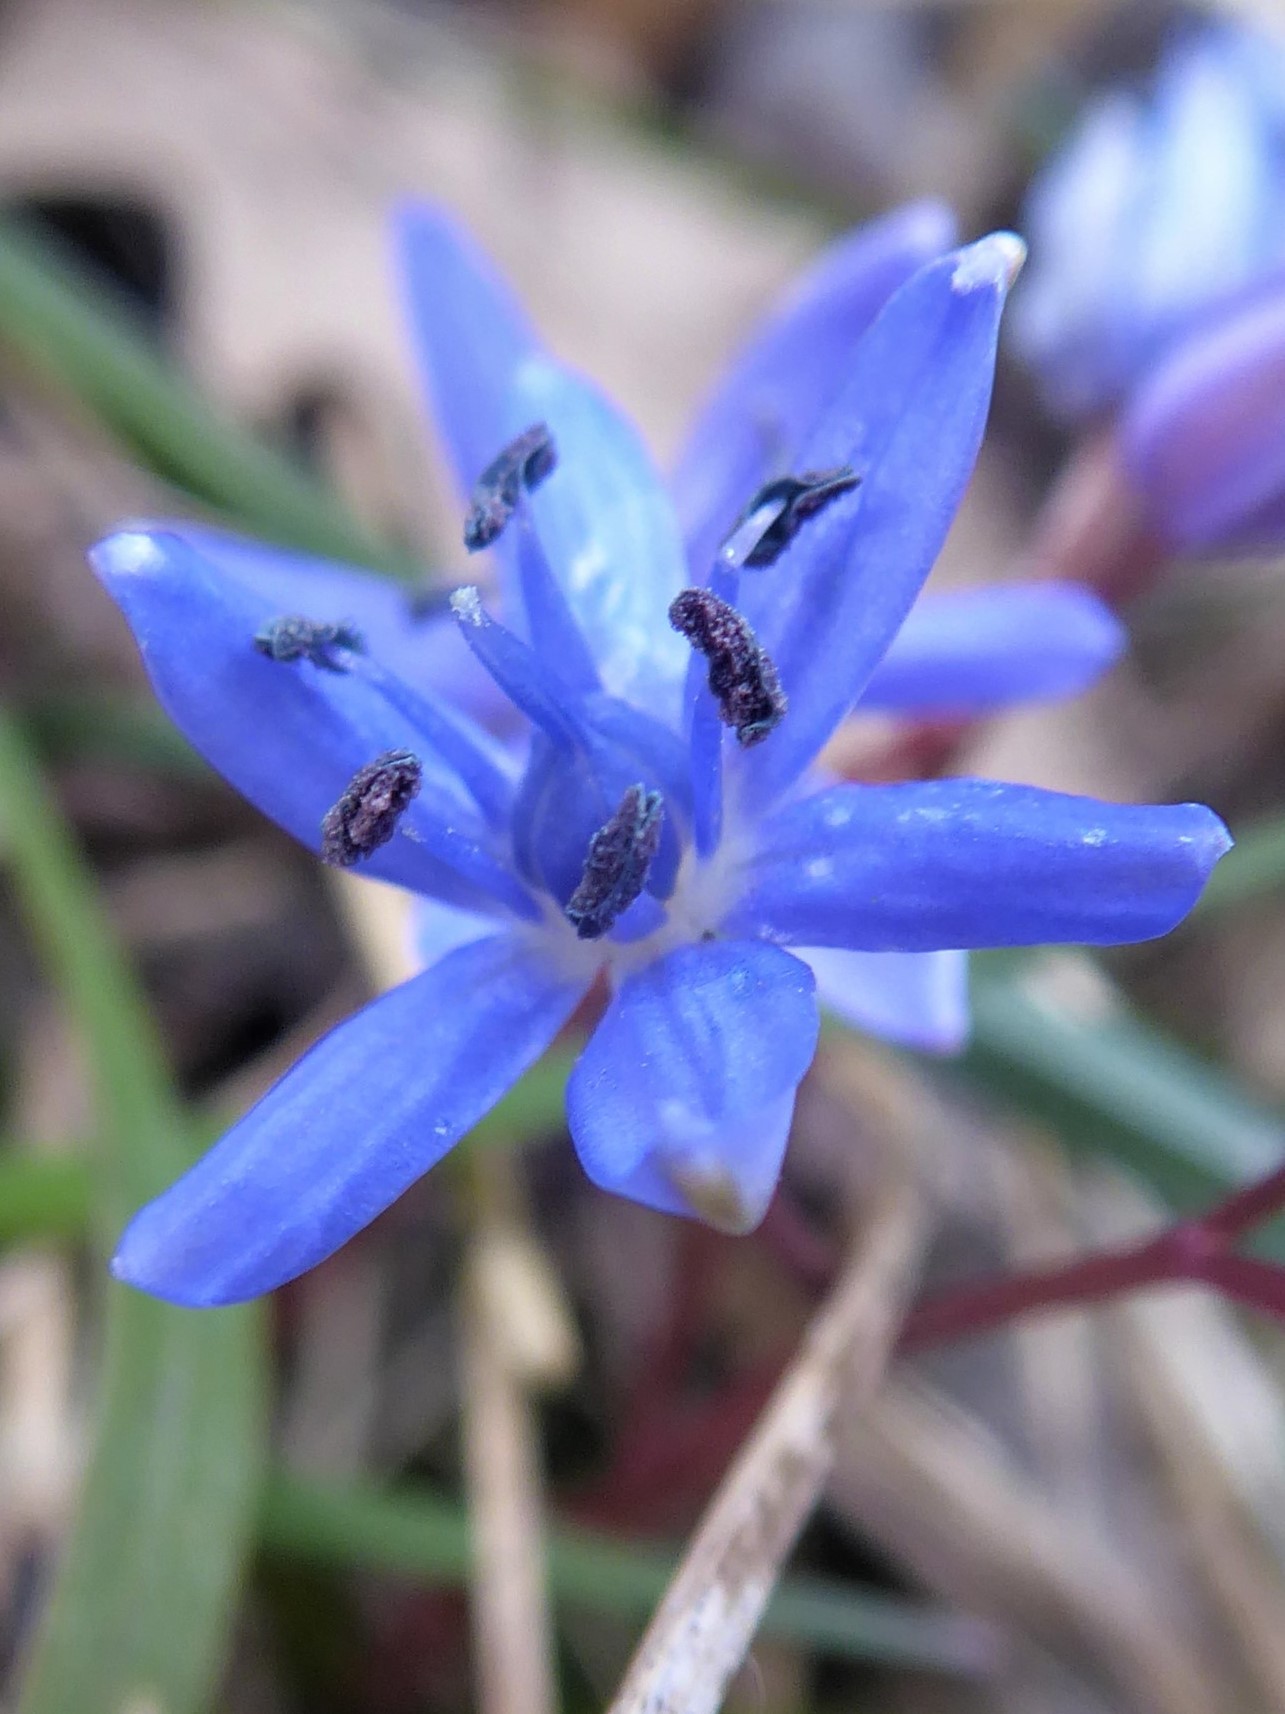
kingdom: Plantae
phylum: Tracheophyta
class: Liliopsida
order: Asparagales
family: Asparagaceae
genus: Scilla
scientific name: Scilla vindobonensis
